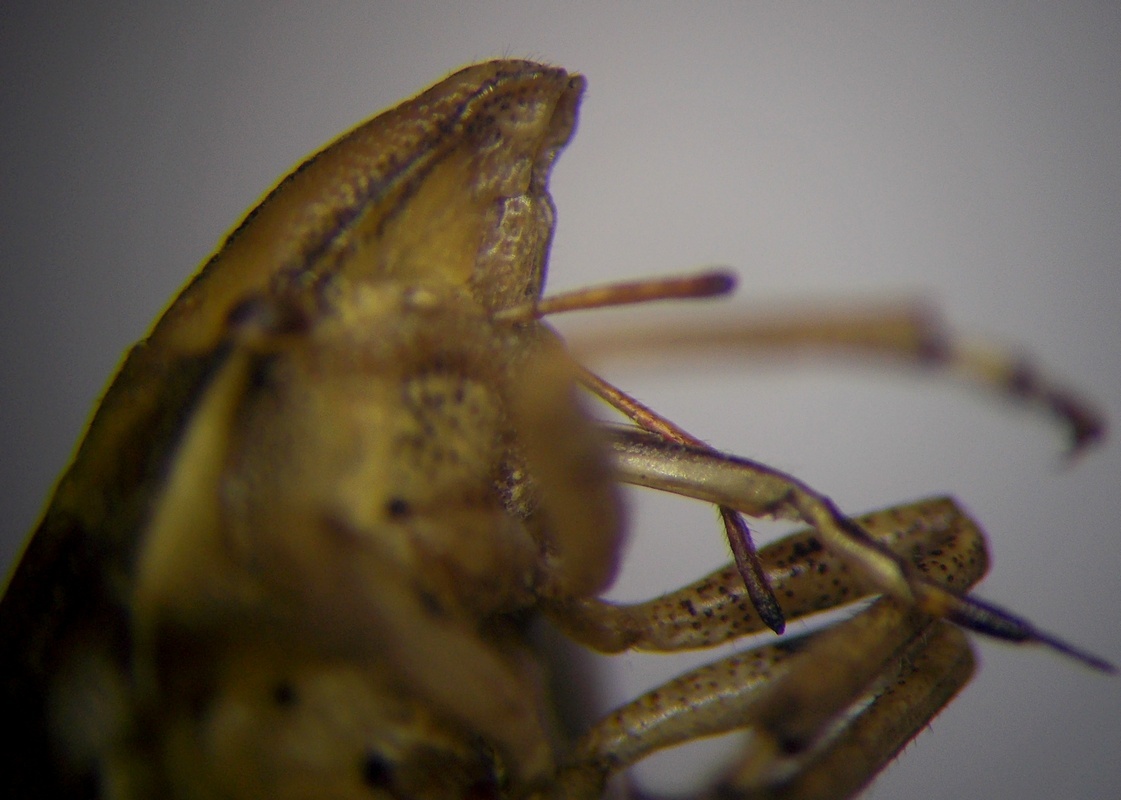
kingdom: Animalia
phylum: Arthropoda
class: Insecta
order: Hemiptera
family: Pentatomidae
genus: Aelia
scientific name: Aelia acuminata
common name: Bishop's mitre
